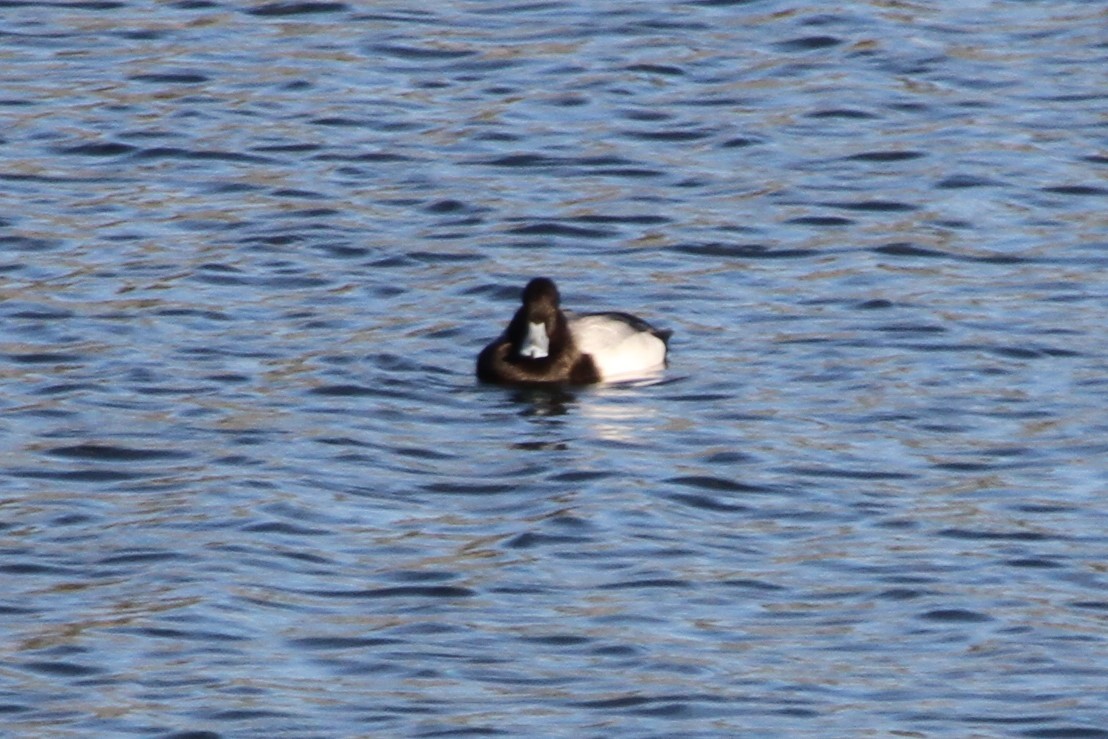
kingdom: Animalia
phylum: Chordata
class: Aves
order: Anseriformes
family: Anatidae
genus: Aythya
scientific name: Aythya affinis
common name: Lesser scaup
